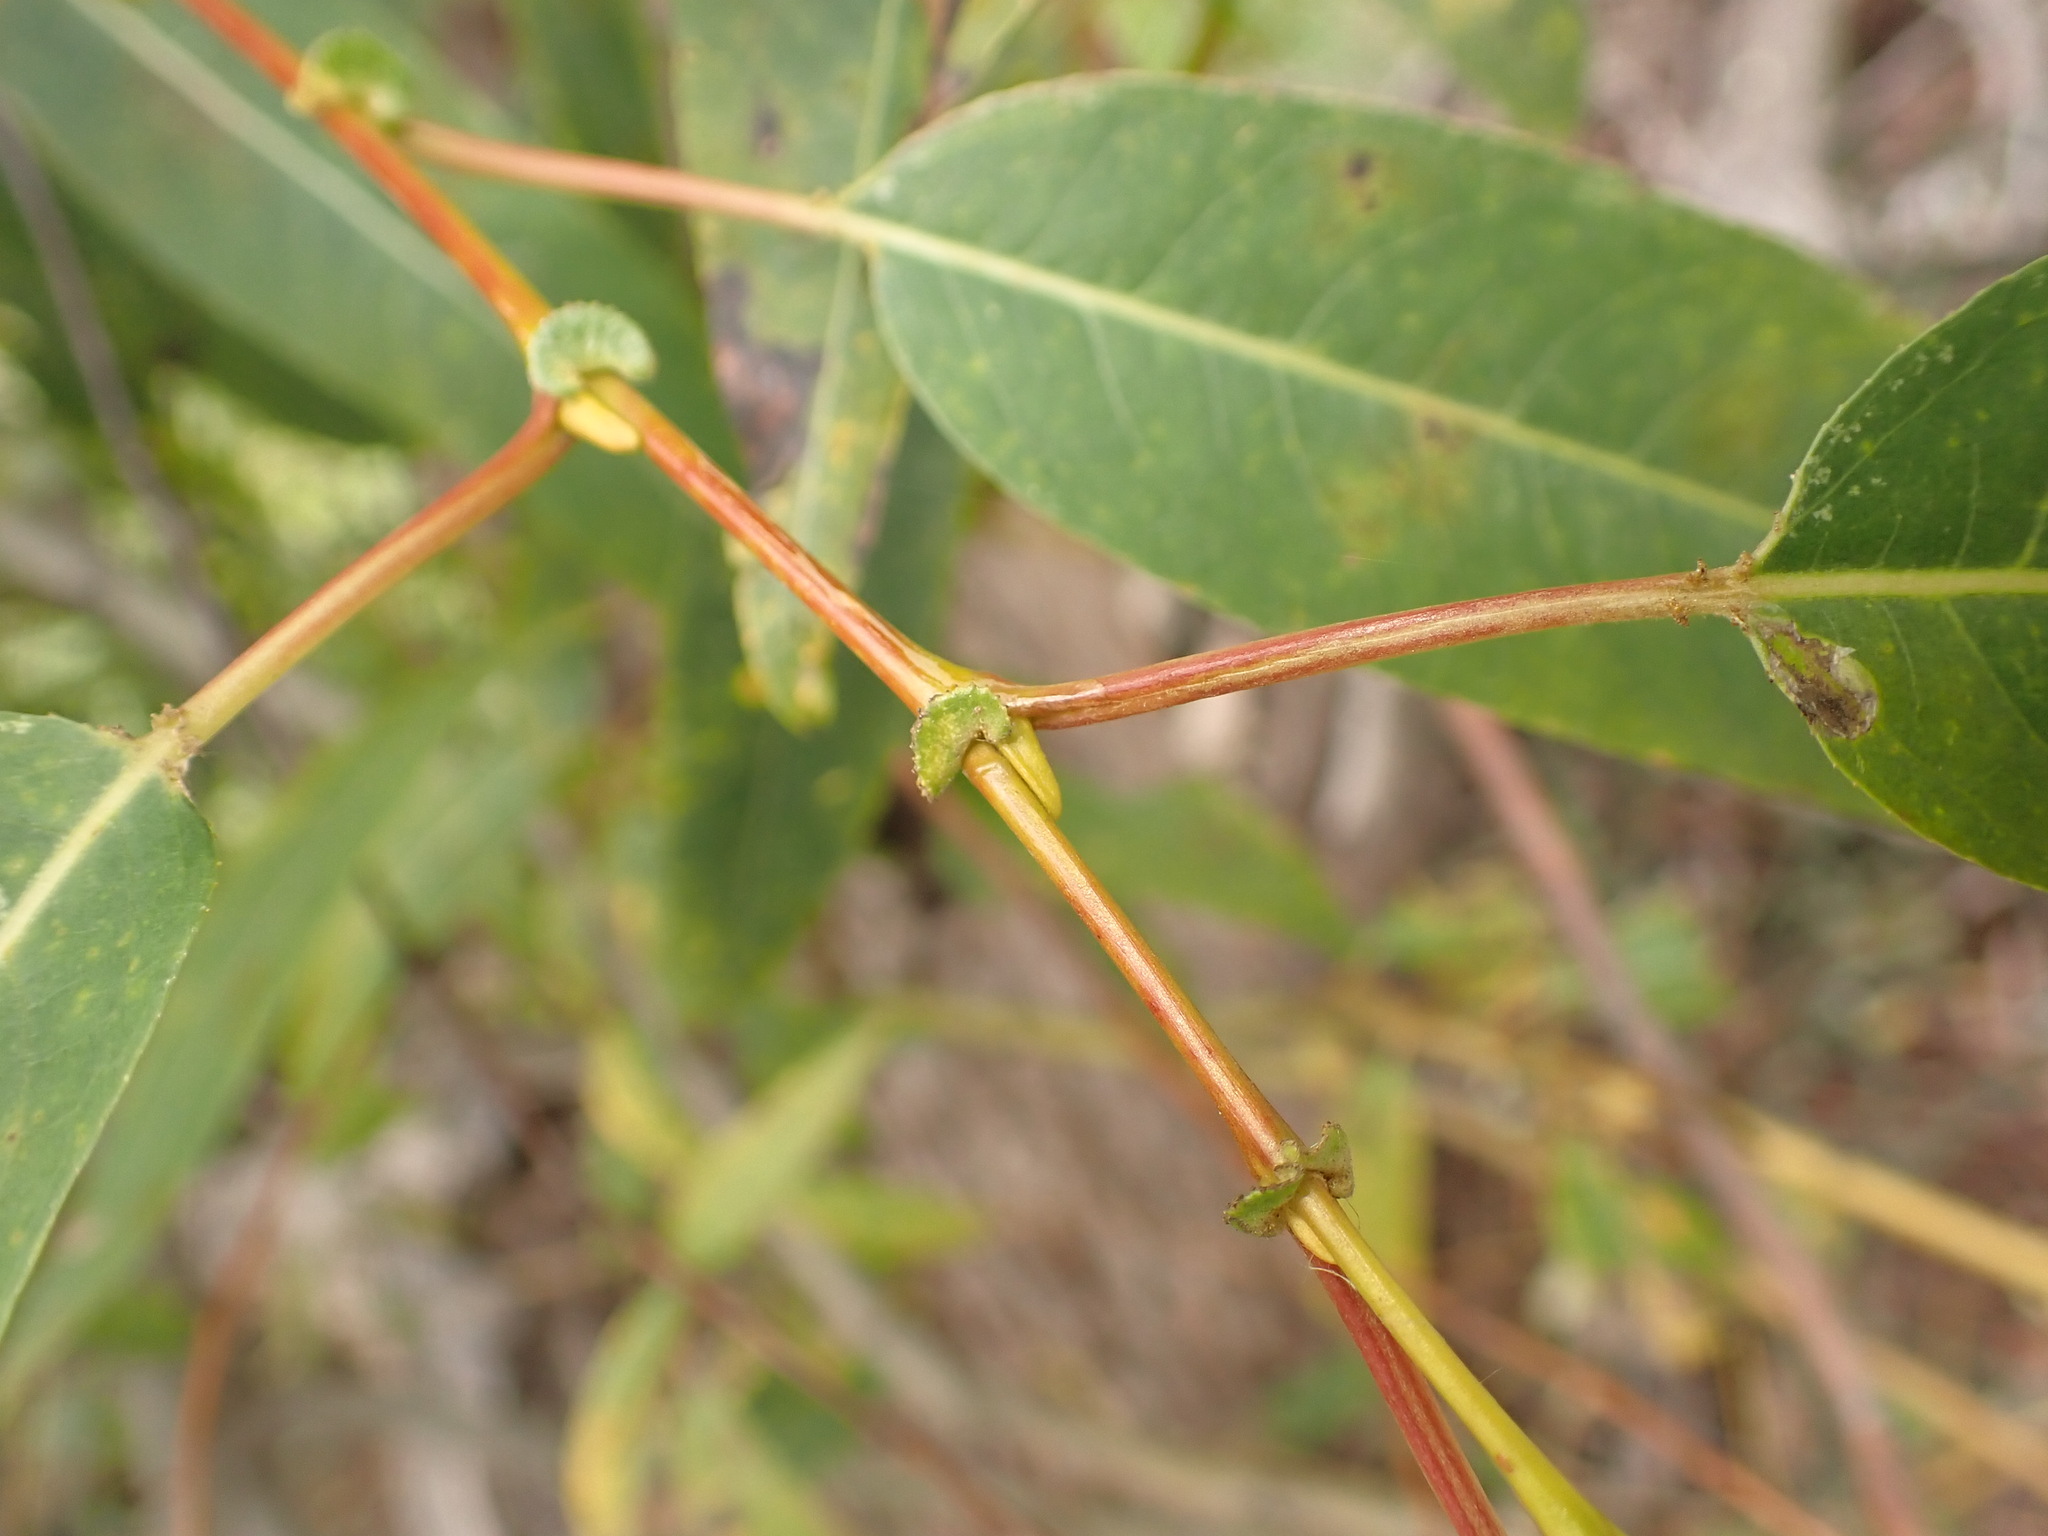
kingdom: Plantae
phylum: Tracheophyta
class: Magnoliopsida
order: Malpighiales
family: Salicaceae
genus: Salix
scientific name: Salix lucida
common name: Shining willow
